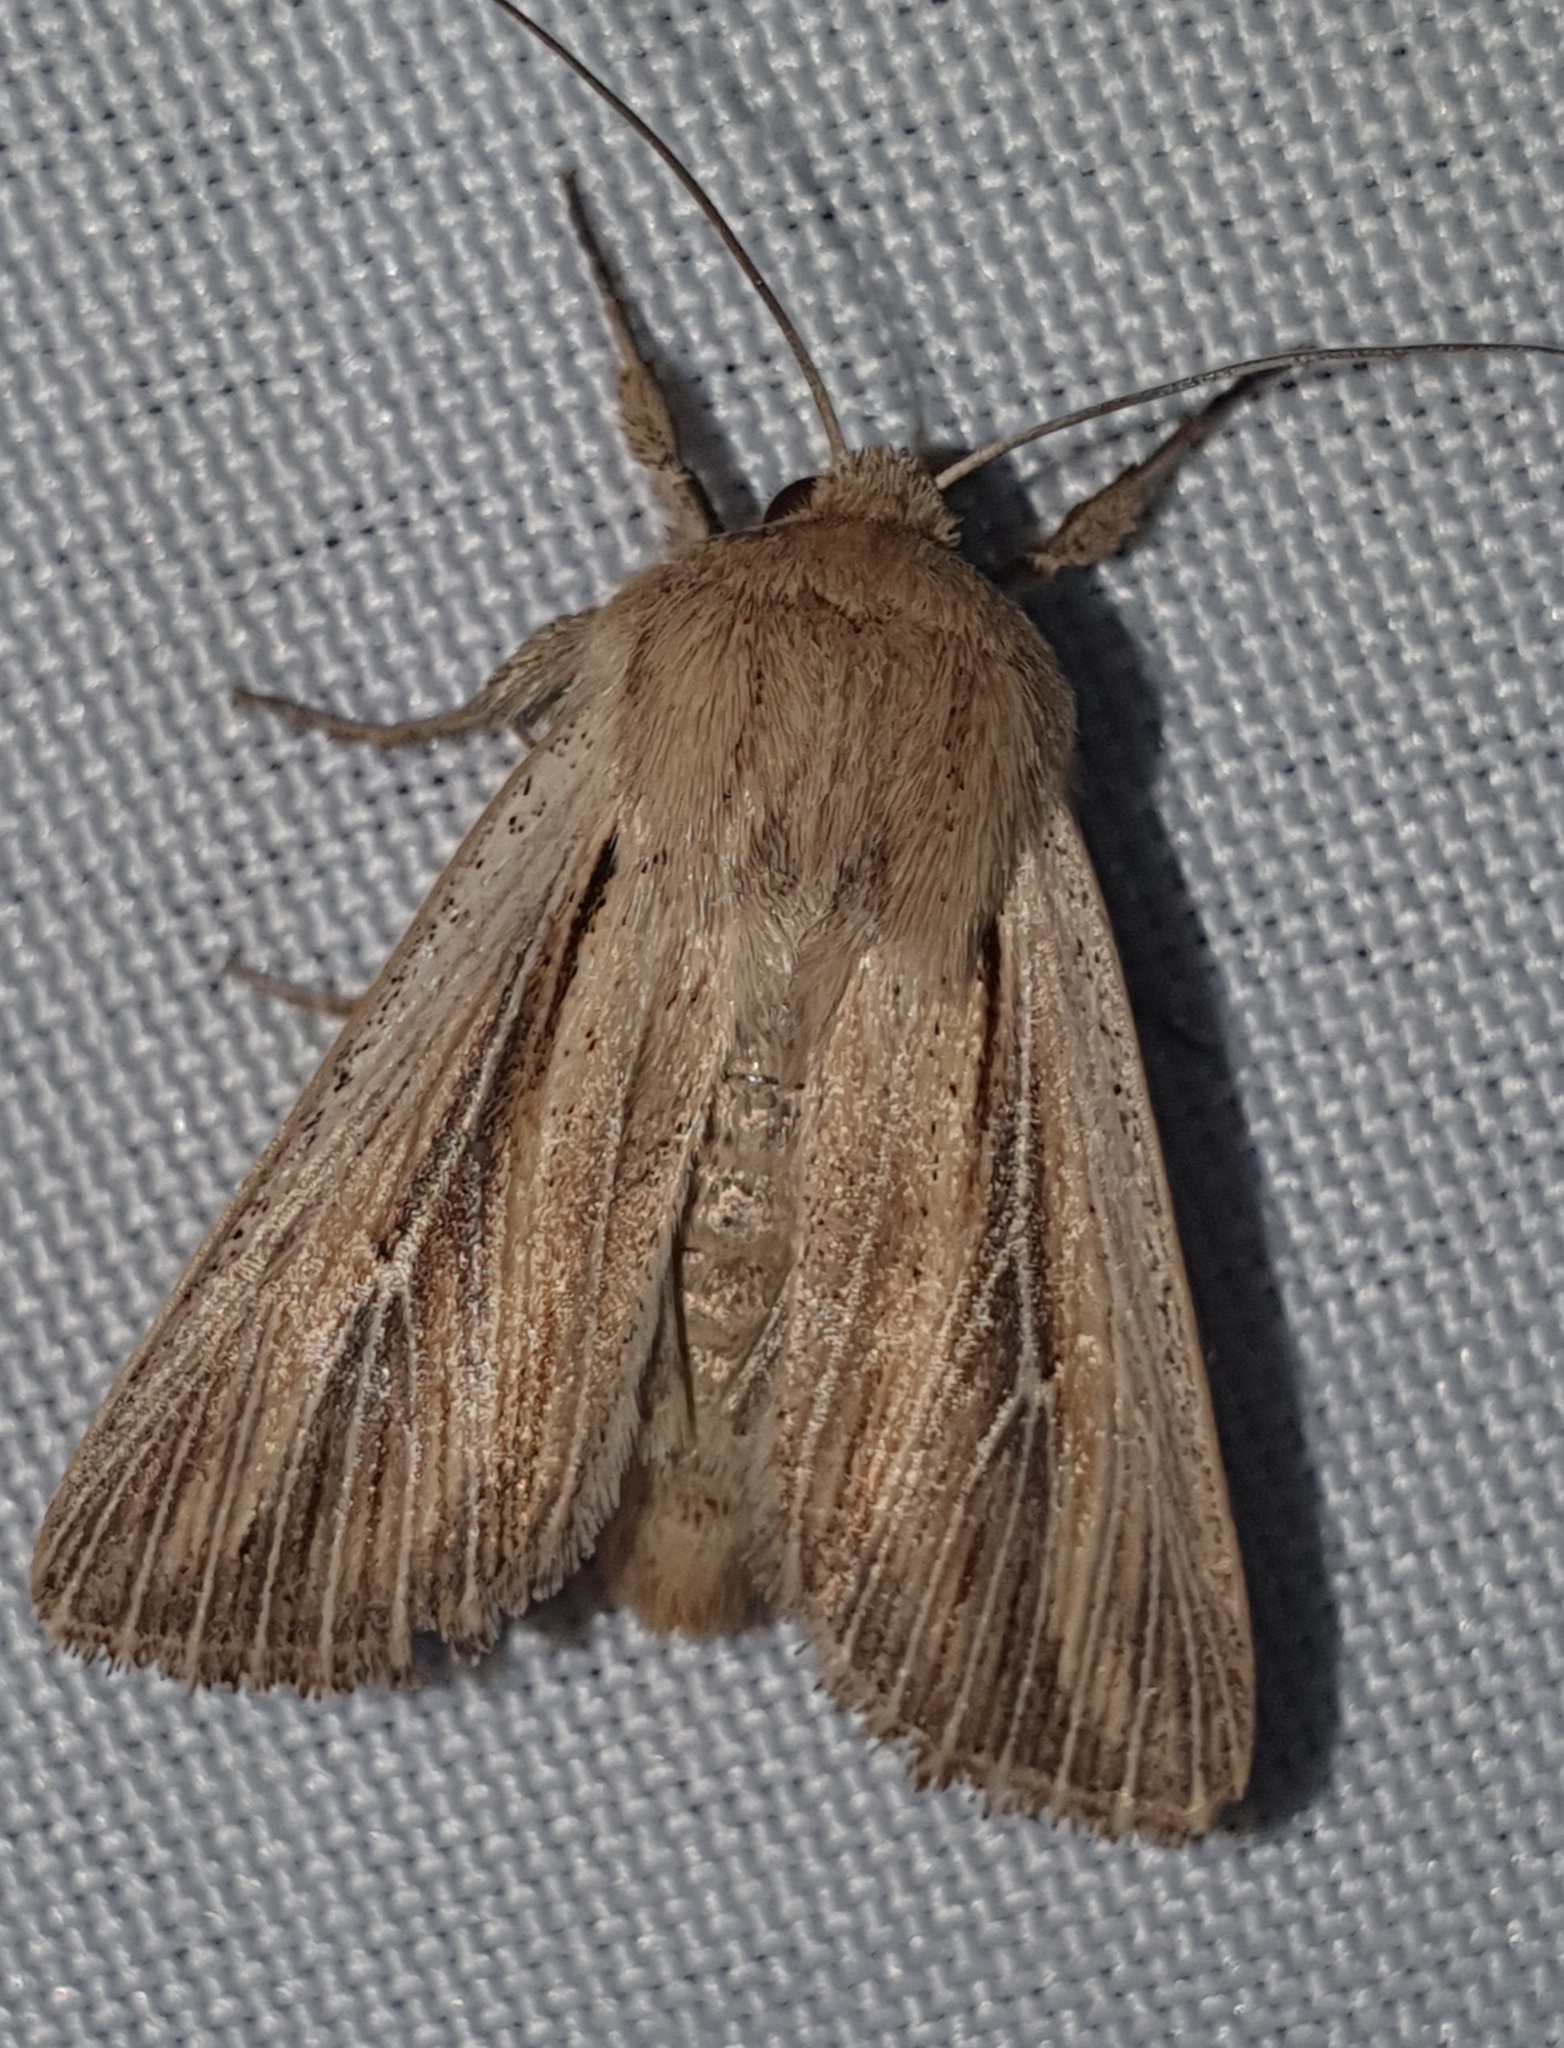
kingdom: Animalia
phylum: Arthropoda
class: Insecta
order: Lepidoptera
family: Noctuidae
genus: Leucania
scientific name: Leucania comma
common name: Shoulder-striped wainscot
